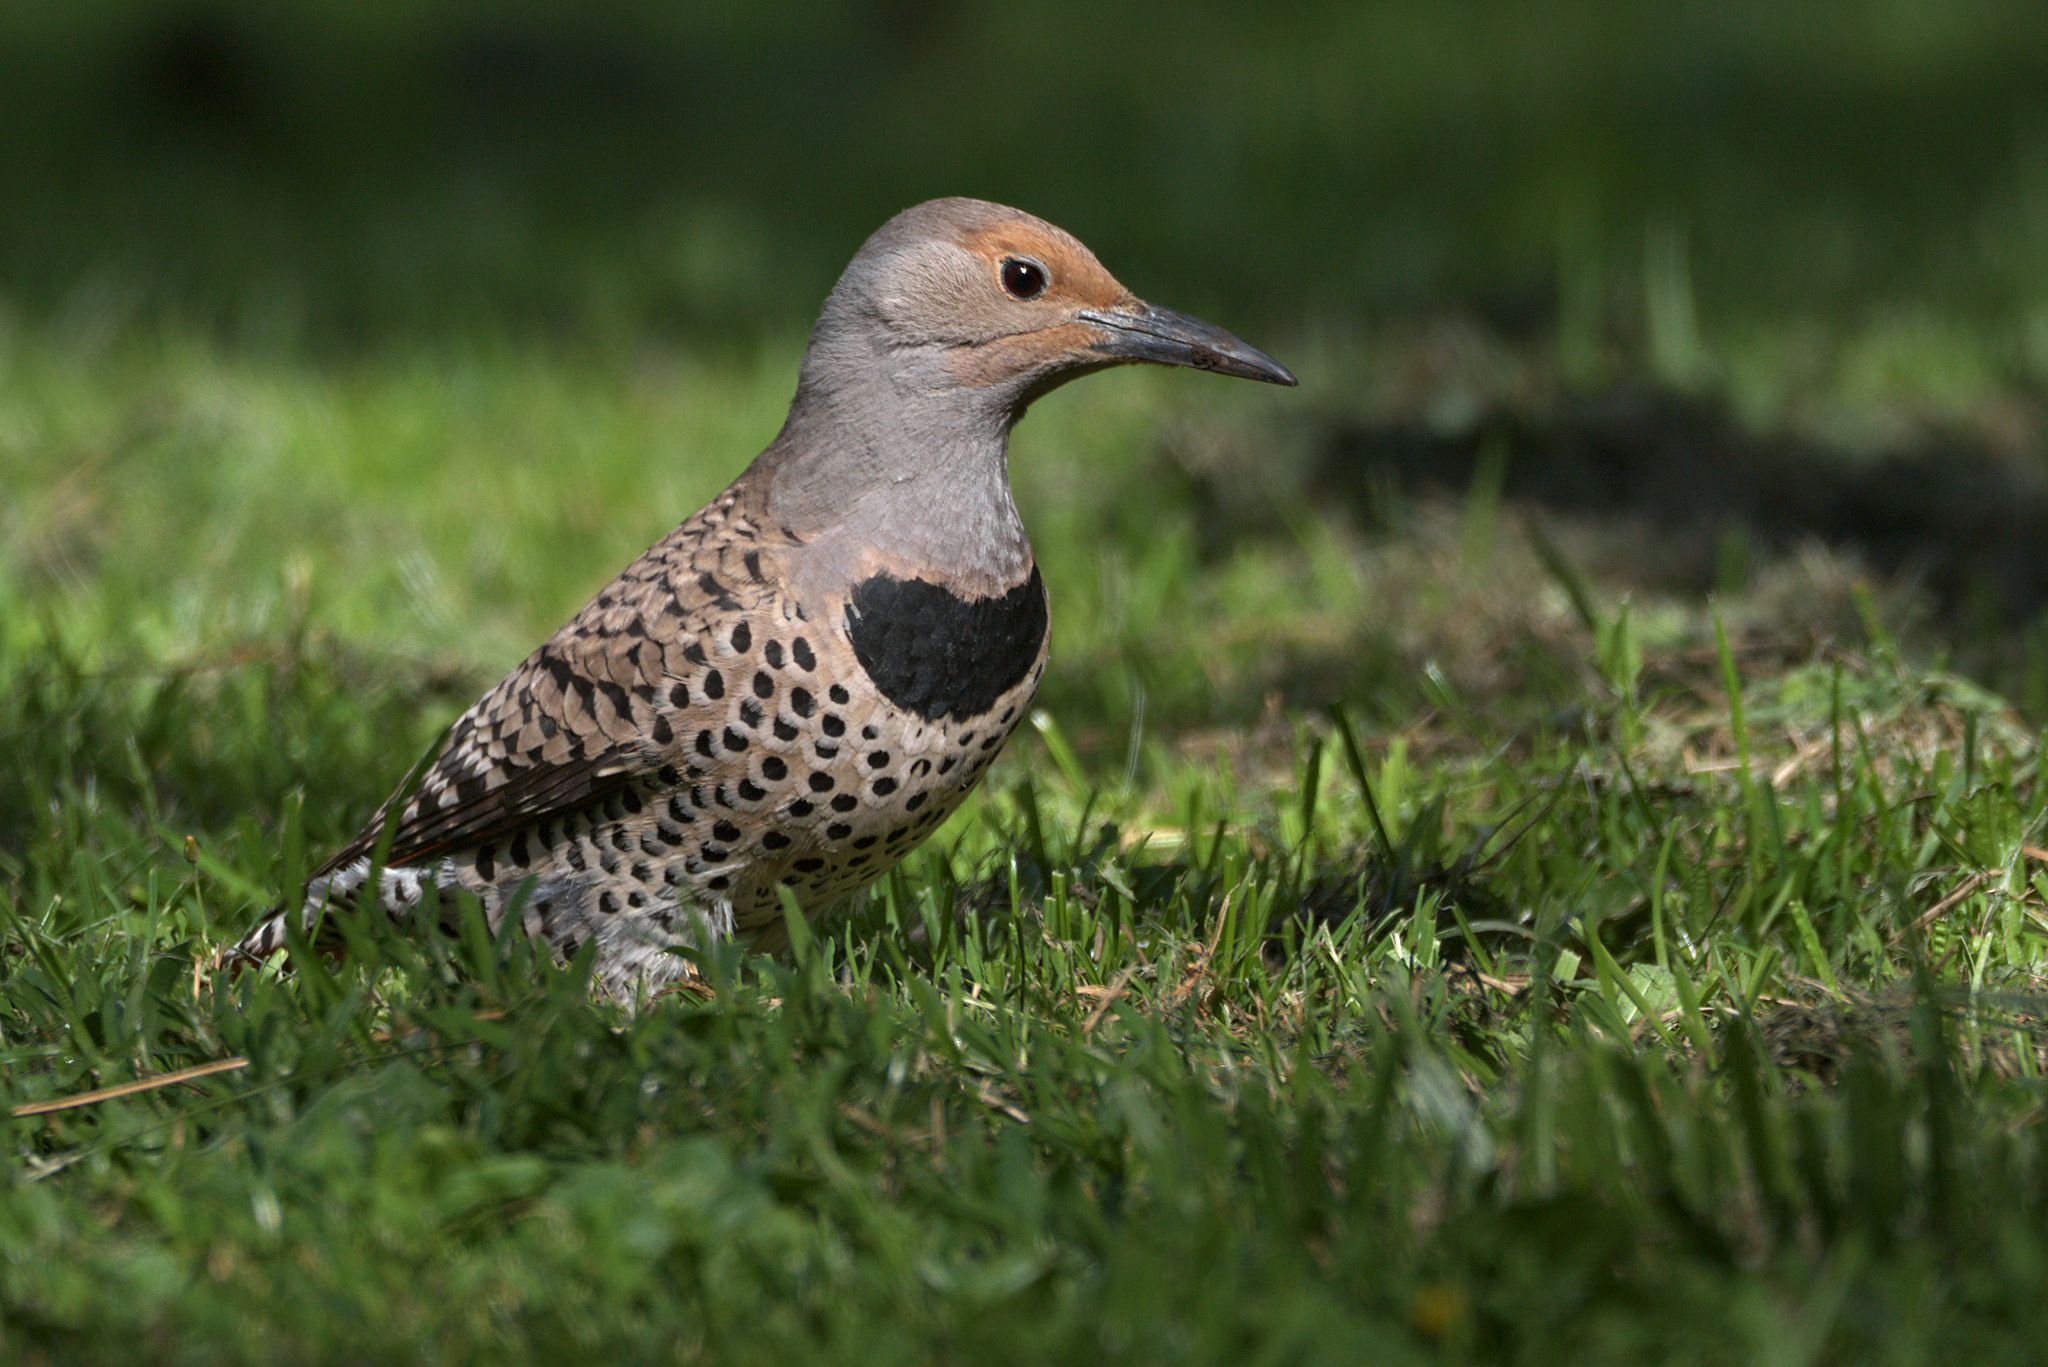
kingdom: Animalia
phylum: Chordata
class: Aves
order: Piciformes
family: Picidae
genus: Colaptes
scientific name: Colaptes auratus
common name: Northern flicker
